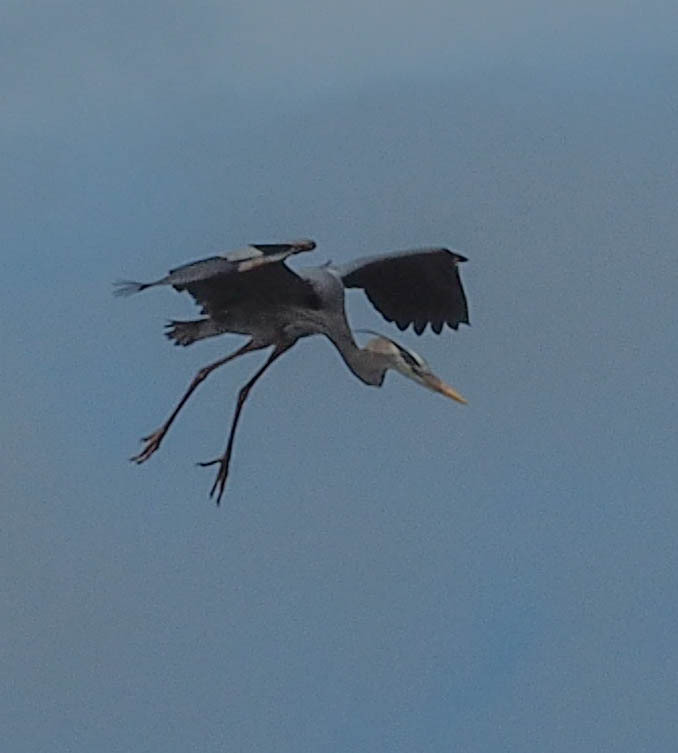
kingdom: Animalia
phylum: Chordata
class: Aves
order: Pelecaniformes
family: Ardeidae
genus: Ardea
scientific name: Ardea herodias
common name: Great blue heron
